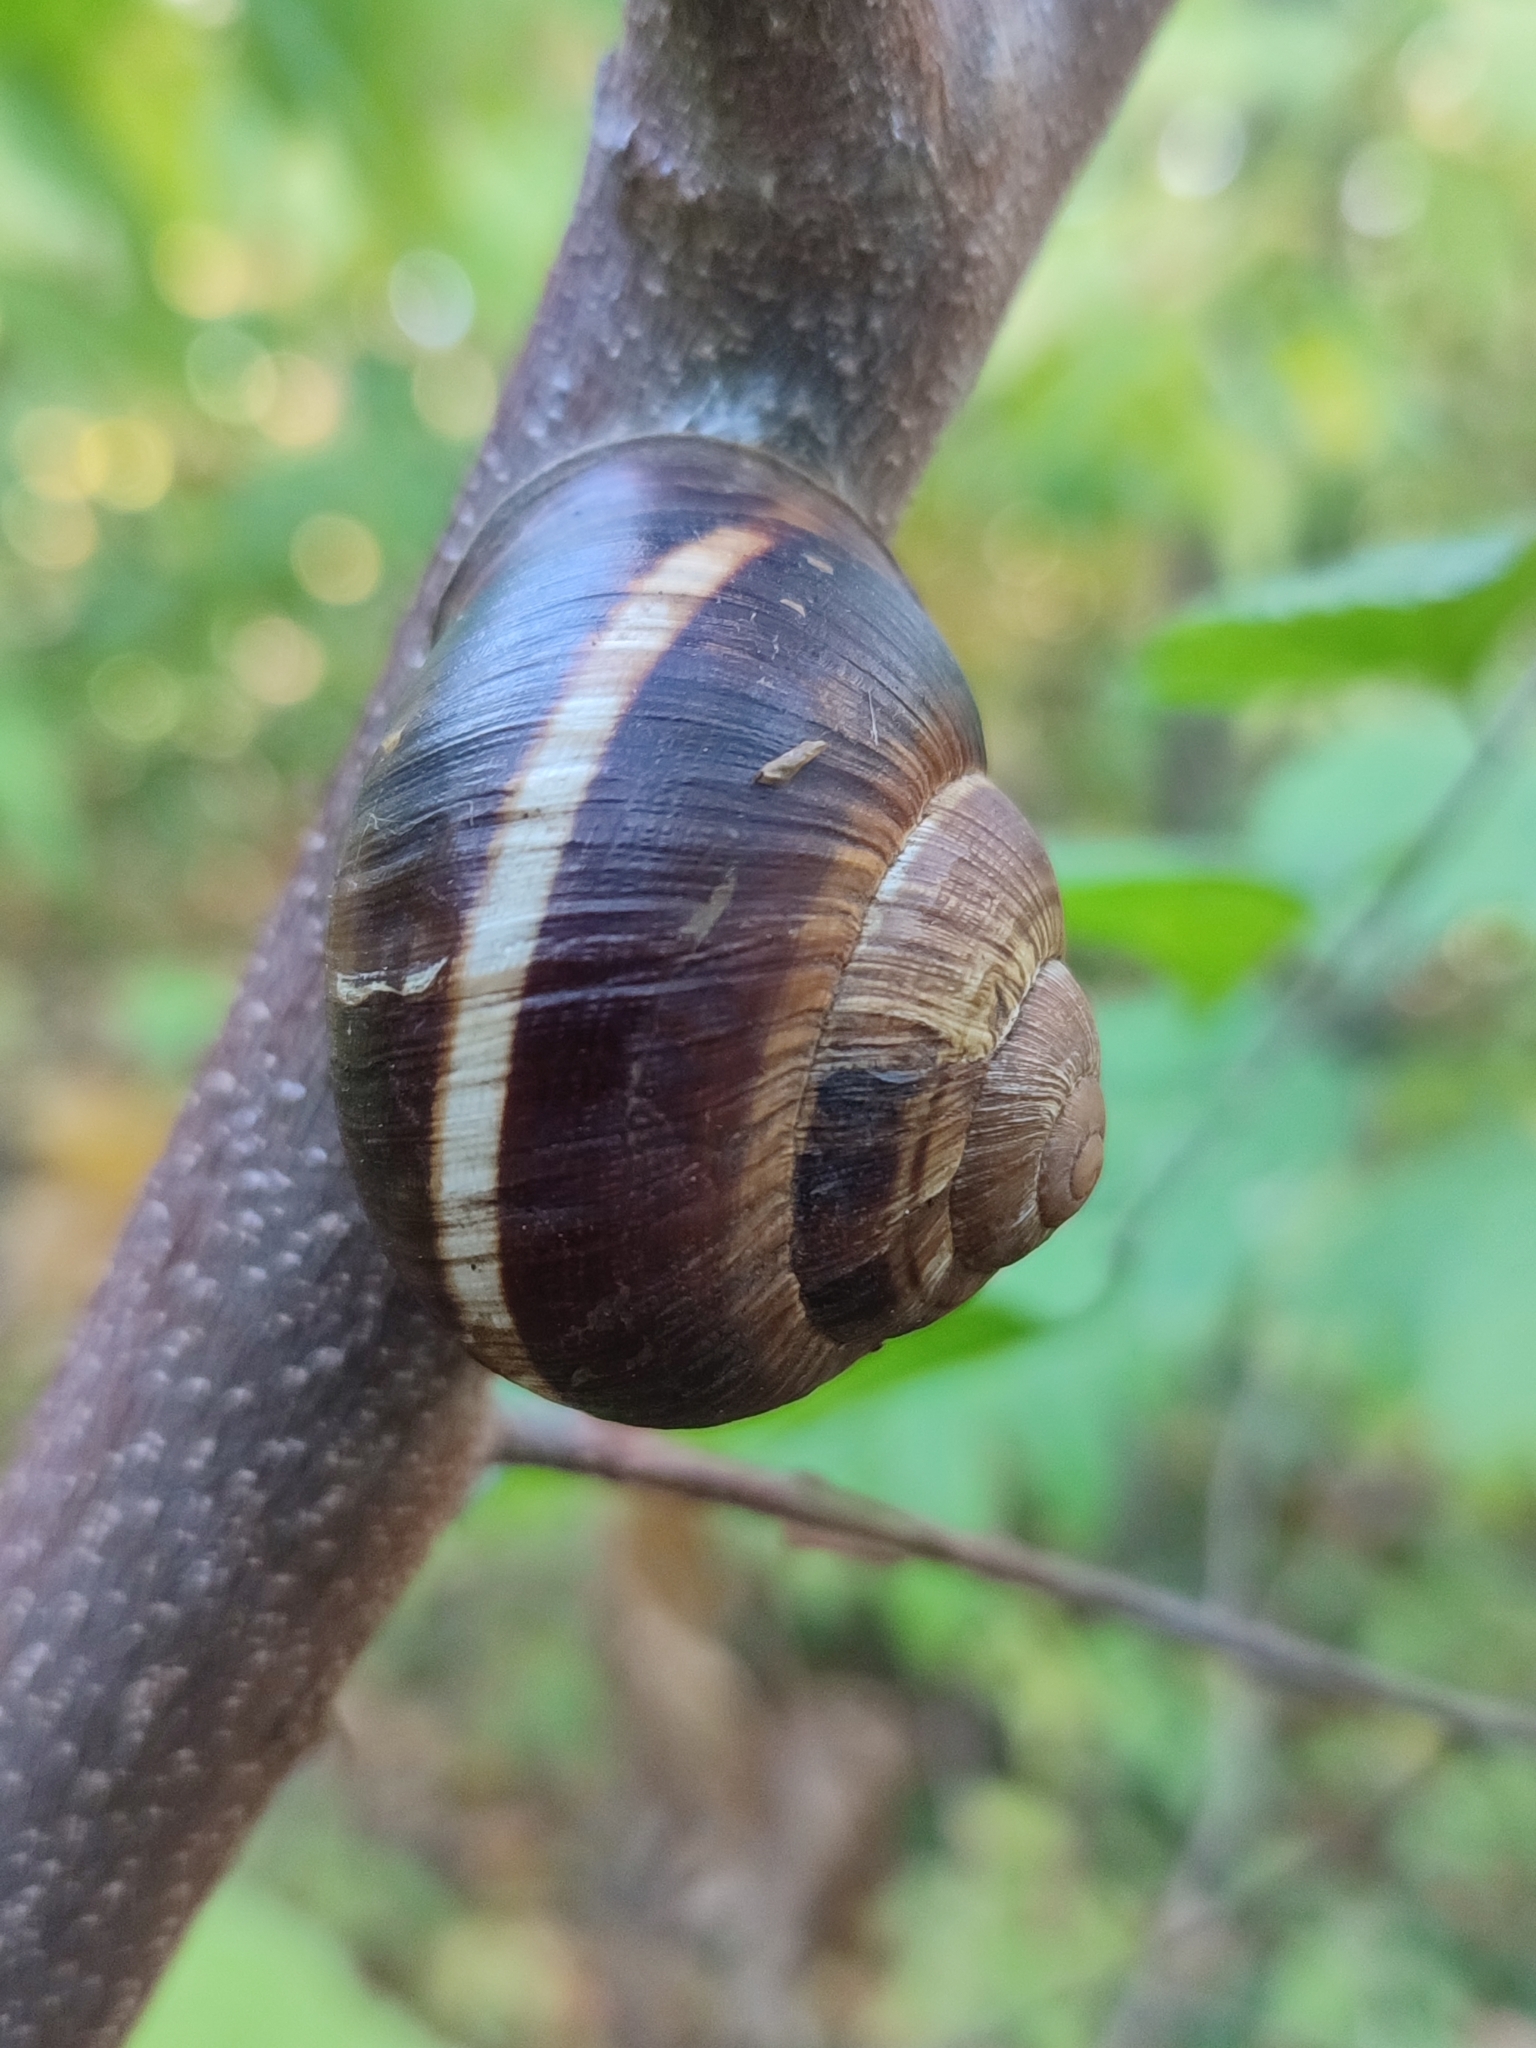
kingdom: Animalia
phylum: Mollusca
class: Gastropoda
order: Stylommatophora
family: Helicidae
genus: Helix
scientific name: Helix lucorum
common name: Turkish snail
